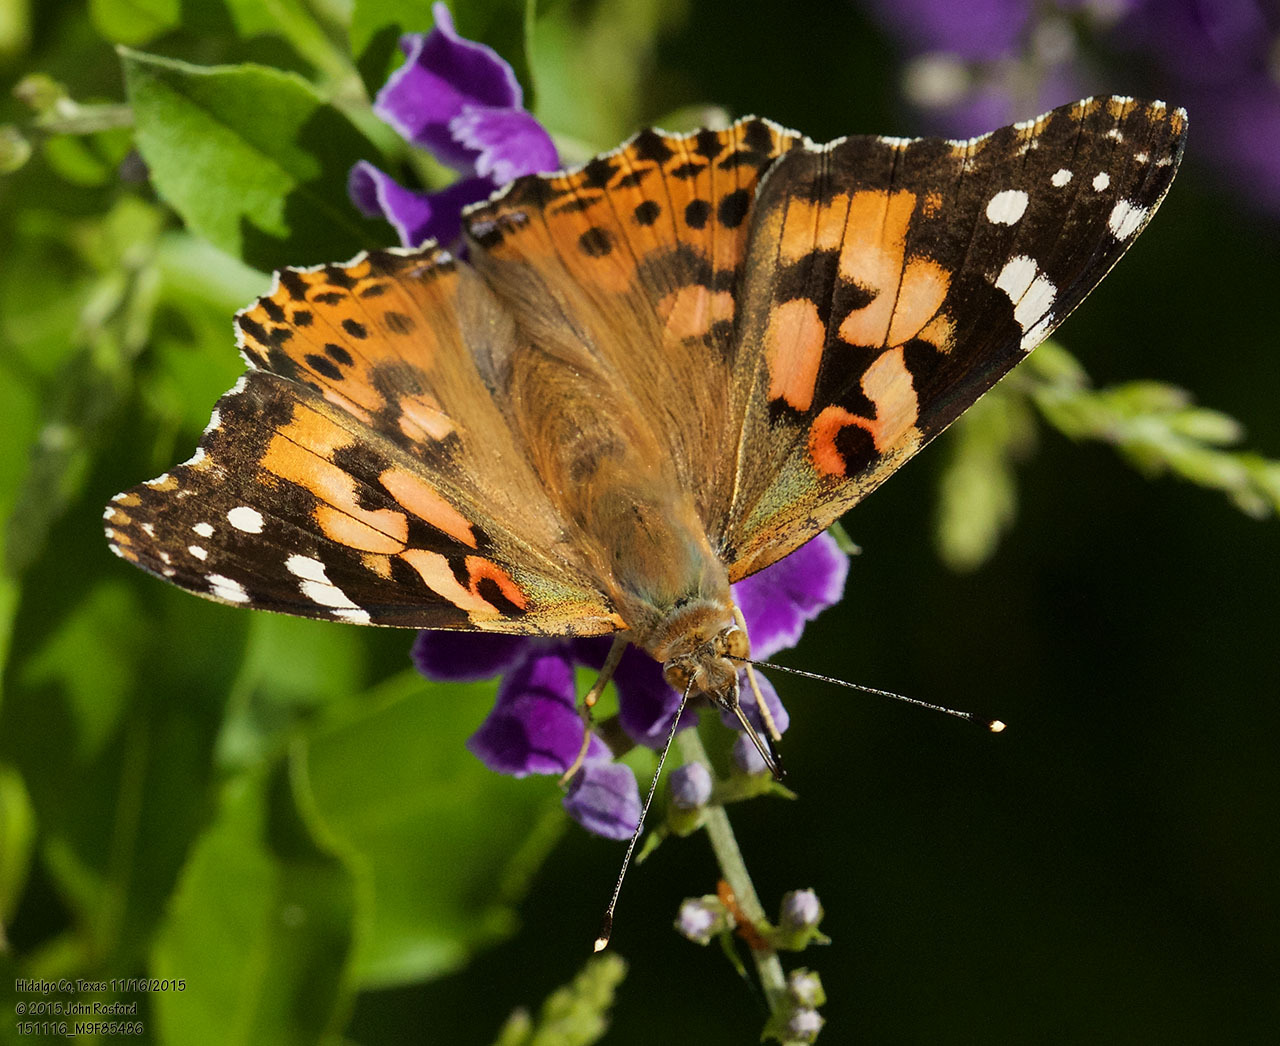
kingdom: Animalia
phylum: Arthropoda
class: Insecta
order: Lepidoptera
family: Nymphalidae
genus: Vanessa
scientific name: Vanessa cardui
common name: Painted lady
